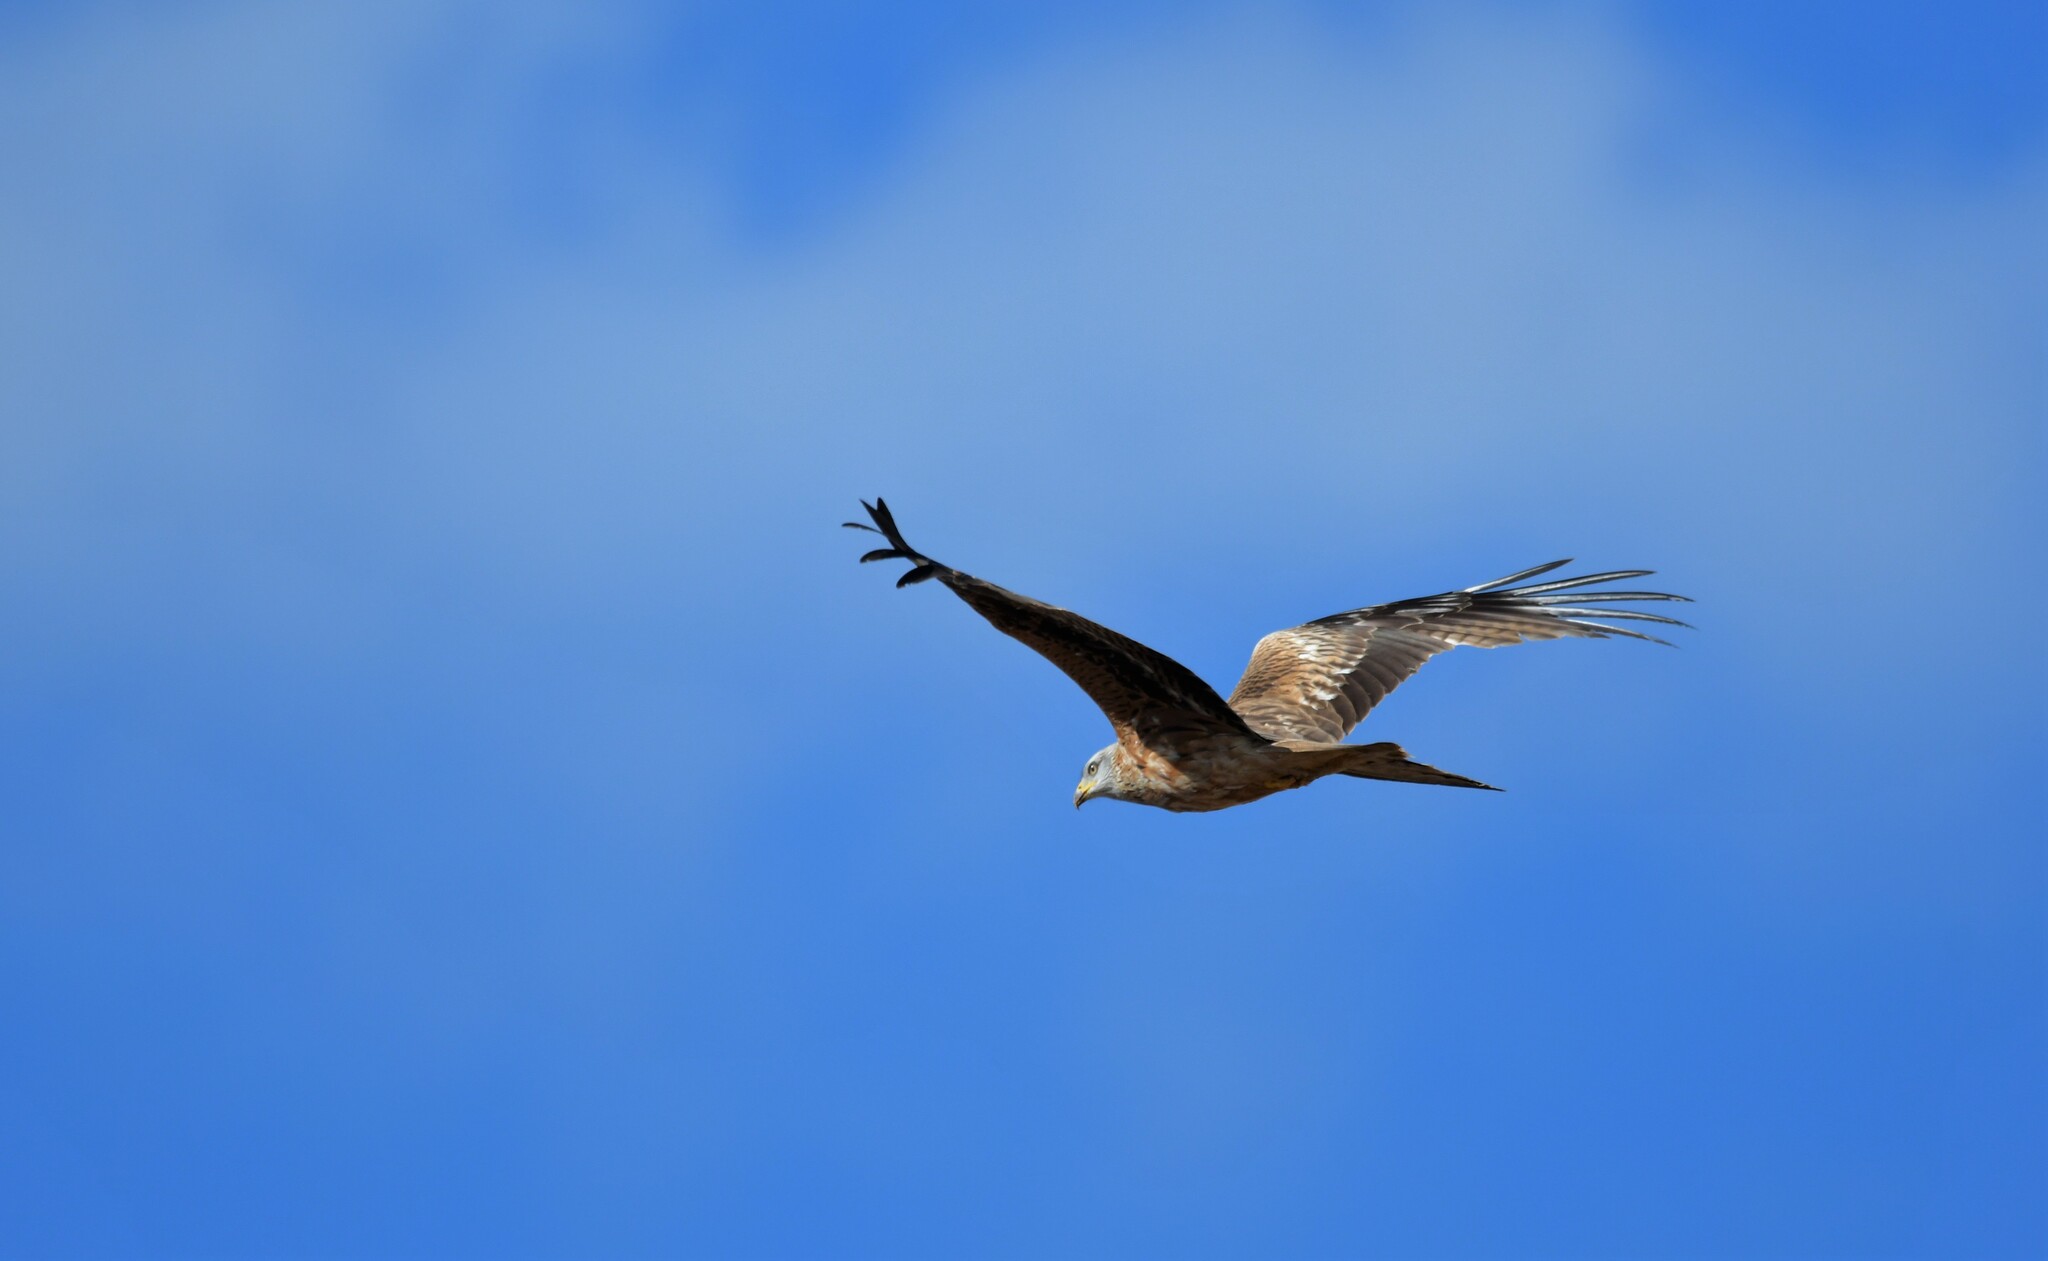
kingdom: Animalia
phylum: Chordata
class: Aves
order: Accipitriformes
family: Accipitridae
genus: Milvus
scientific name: Milvus milvus
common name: Red kite
